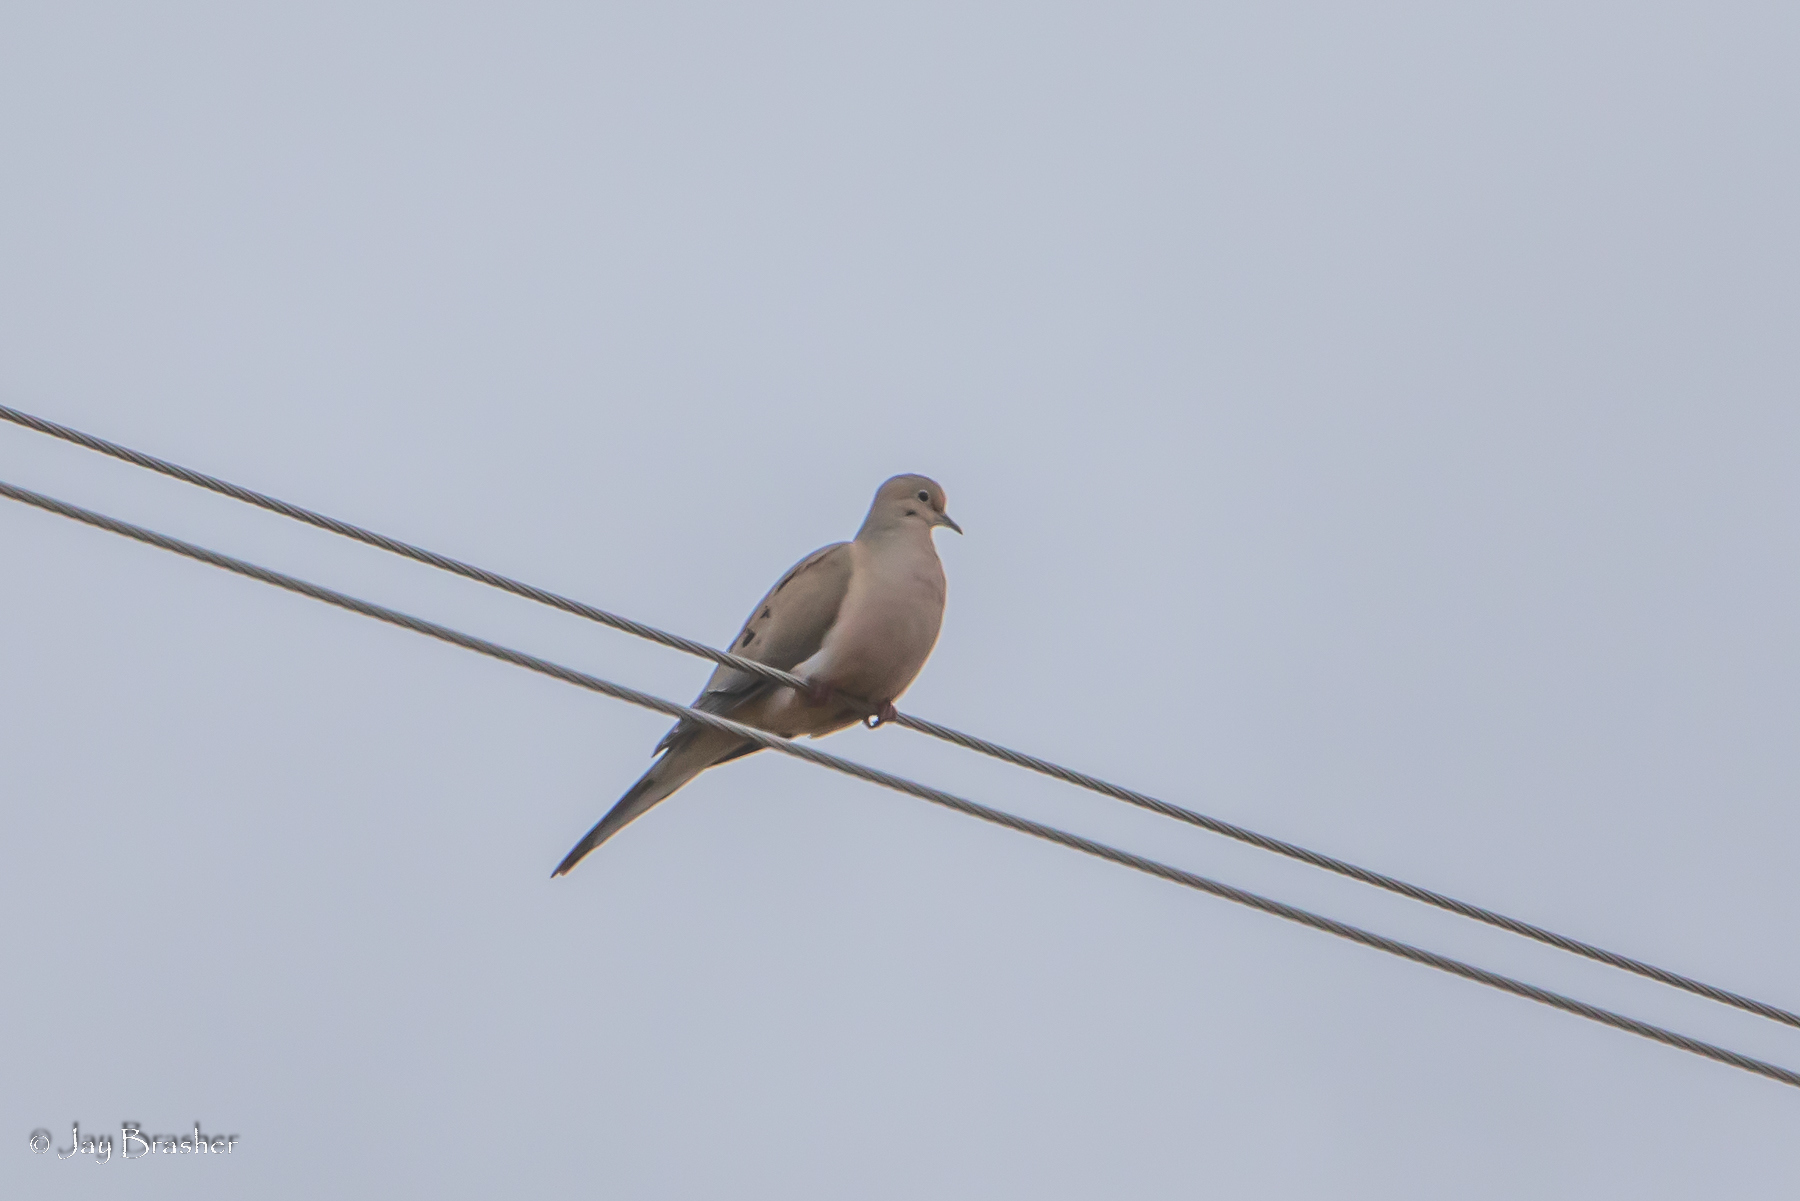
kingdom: Animalia
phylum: Chordata
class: Aves
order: Columbiformes
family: Columbidae
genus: Zenaida
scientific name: Zenaida macroura
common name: Mourning dove
